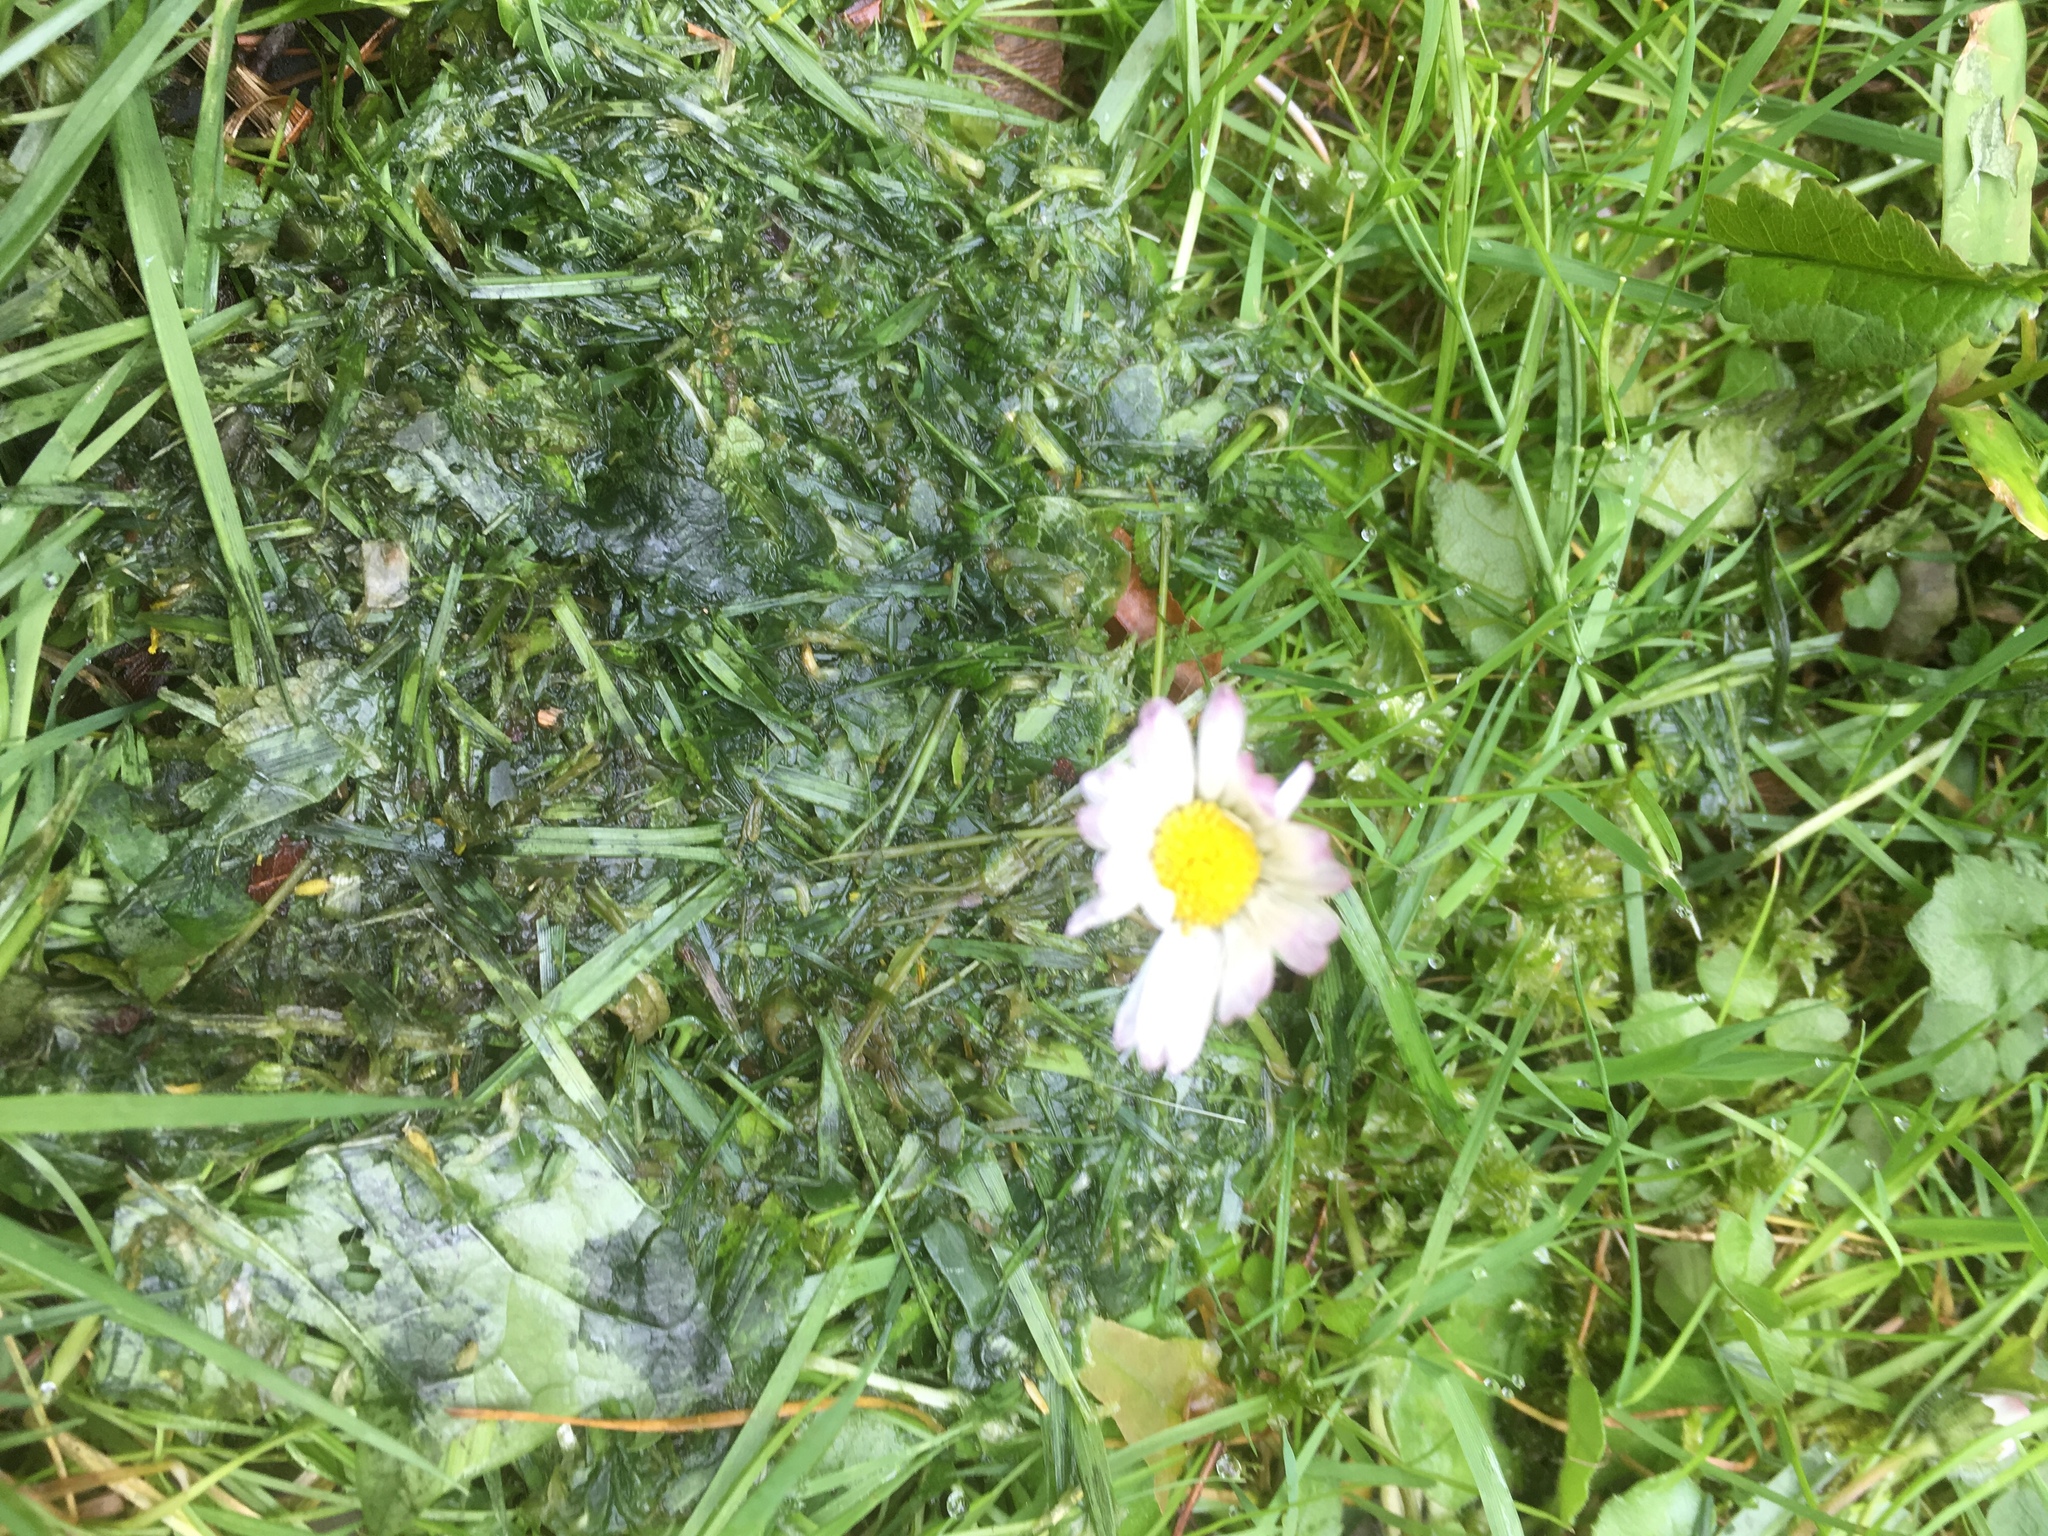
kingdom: Plantae
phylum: Tracheophyta
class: Magnoliopsida
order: Asterales
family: Asteraceae
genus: Bellis
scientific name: Bellis perennis
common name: Lawndaisy
